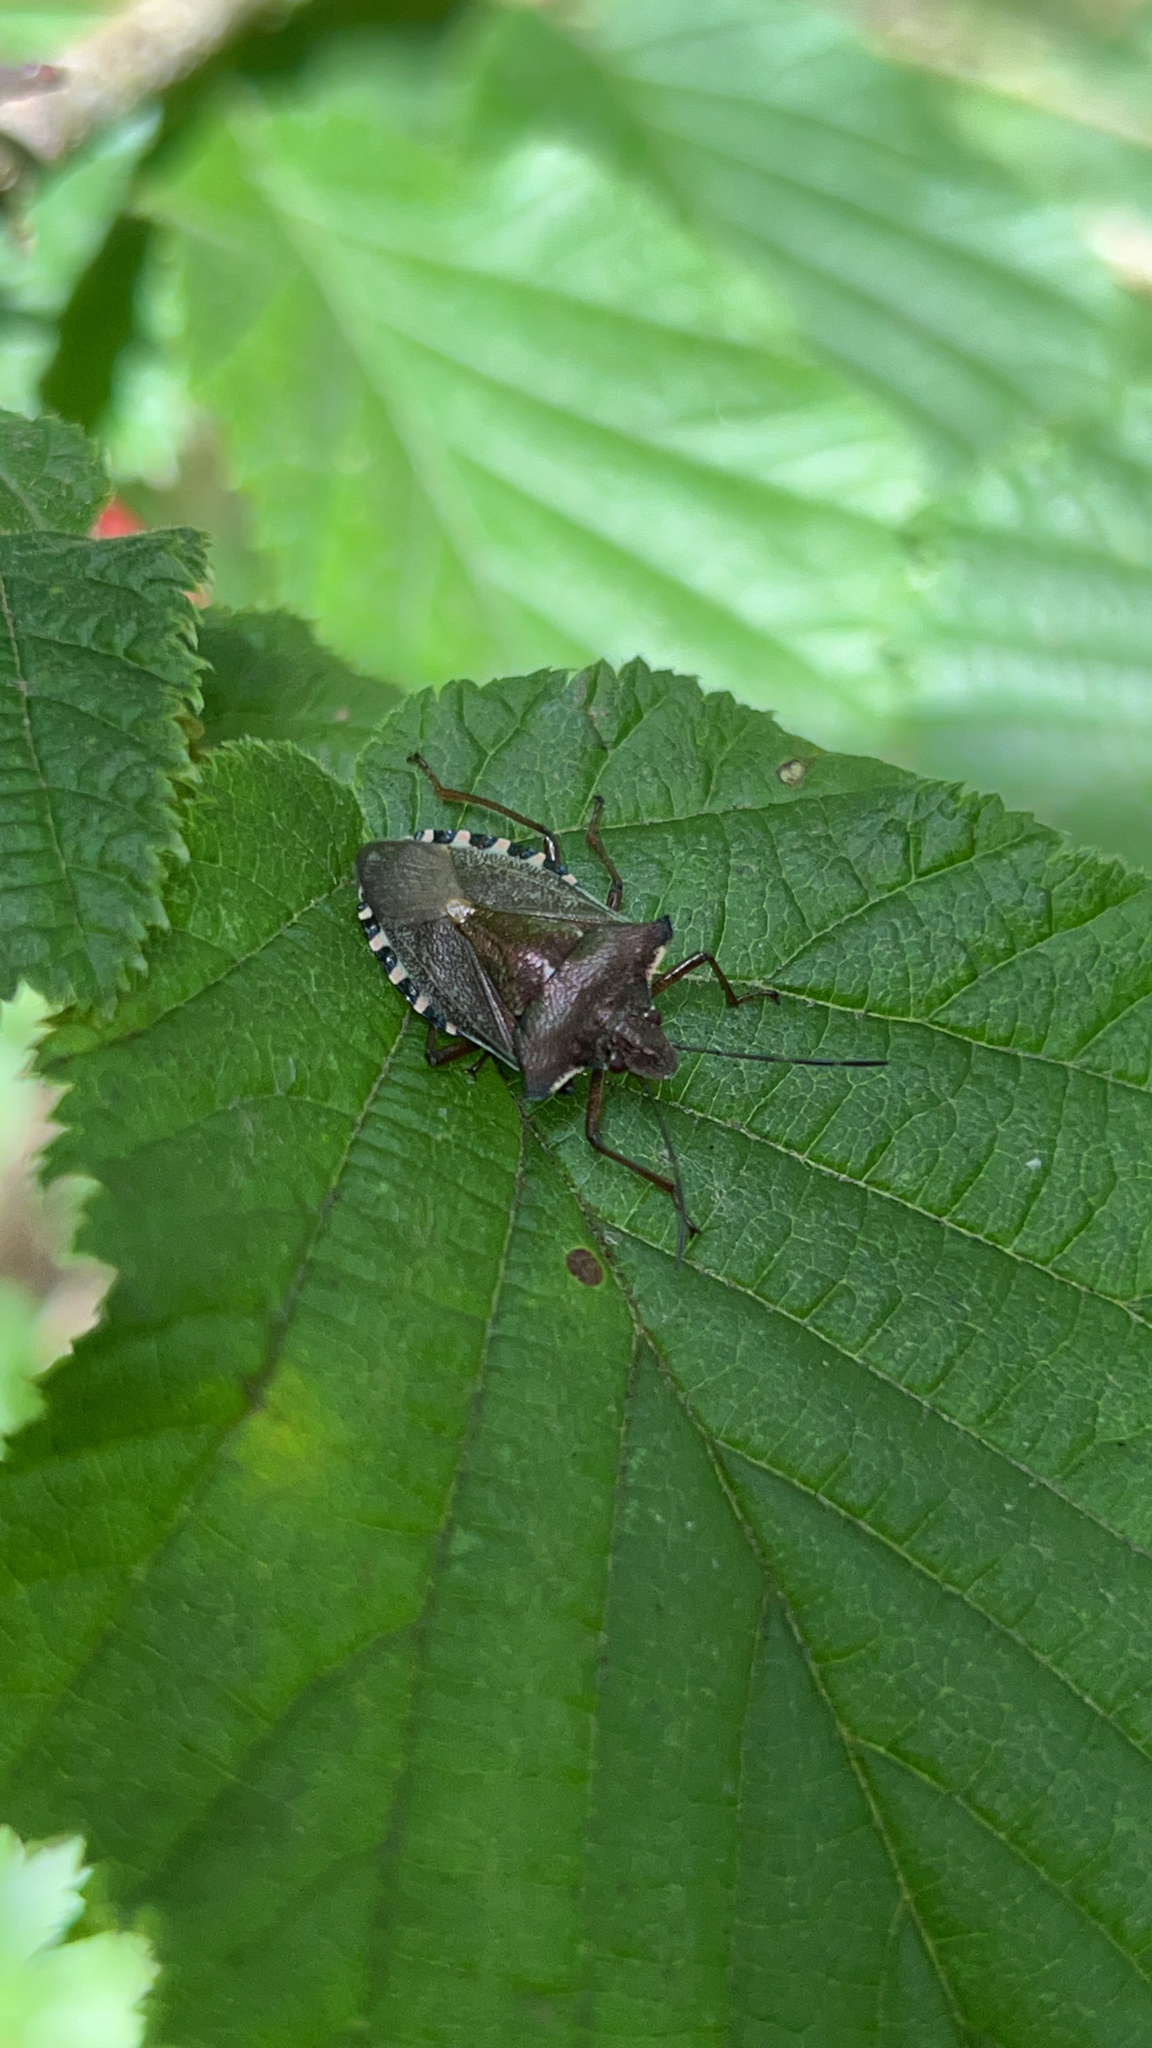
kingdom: Animalia
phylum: Arthropoda
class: Insecta
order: Hemiptera
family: Pentatomidae
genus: Pentatoma
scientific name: Pentatoma rufipes
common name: Forest bug
